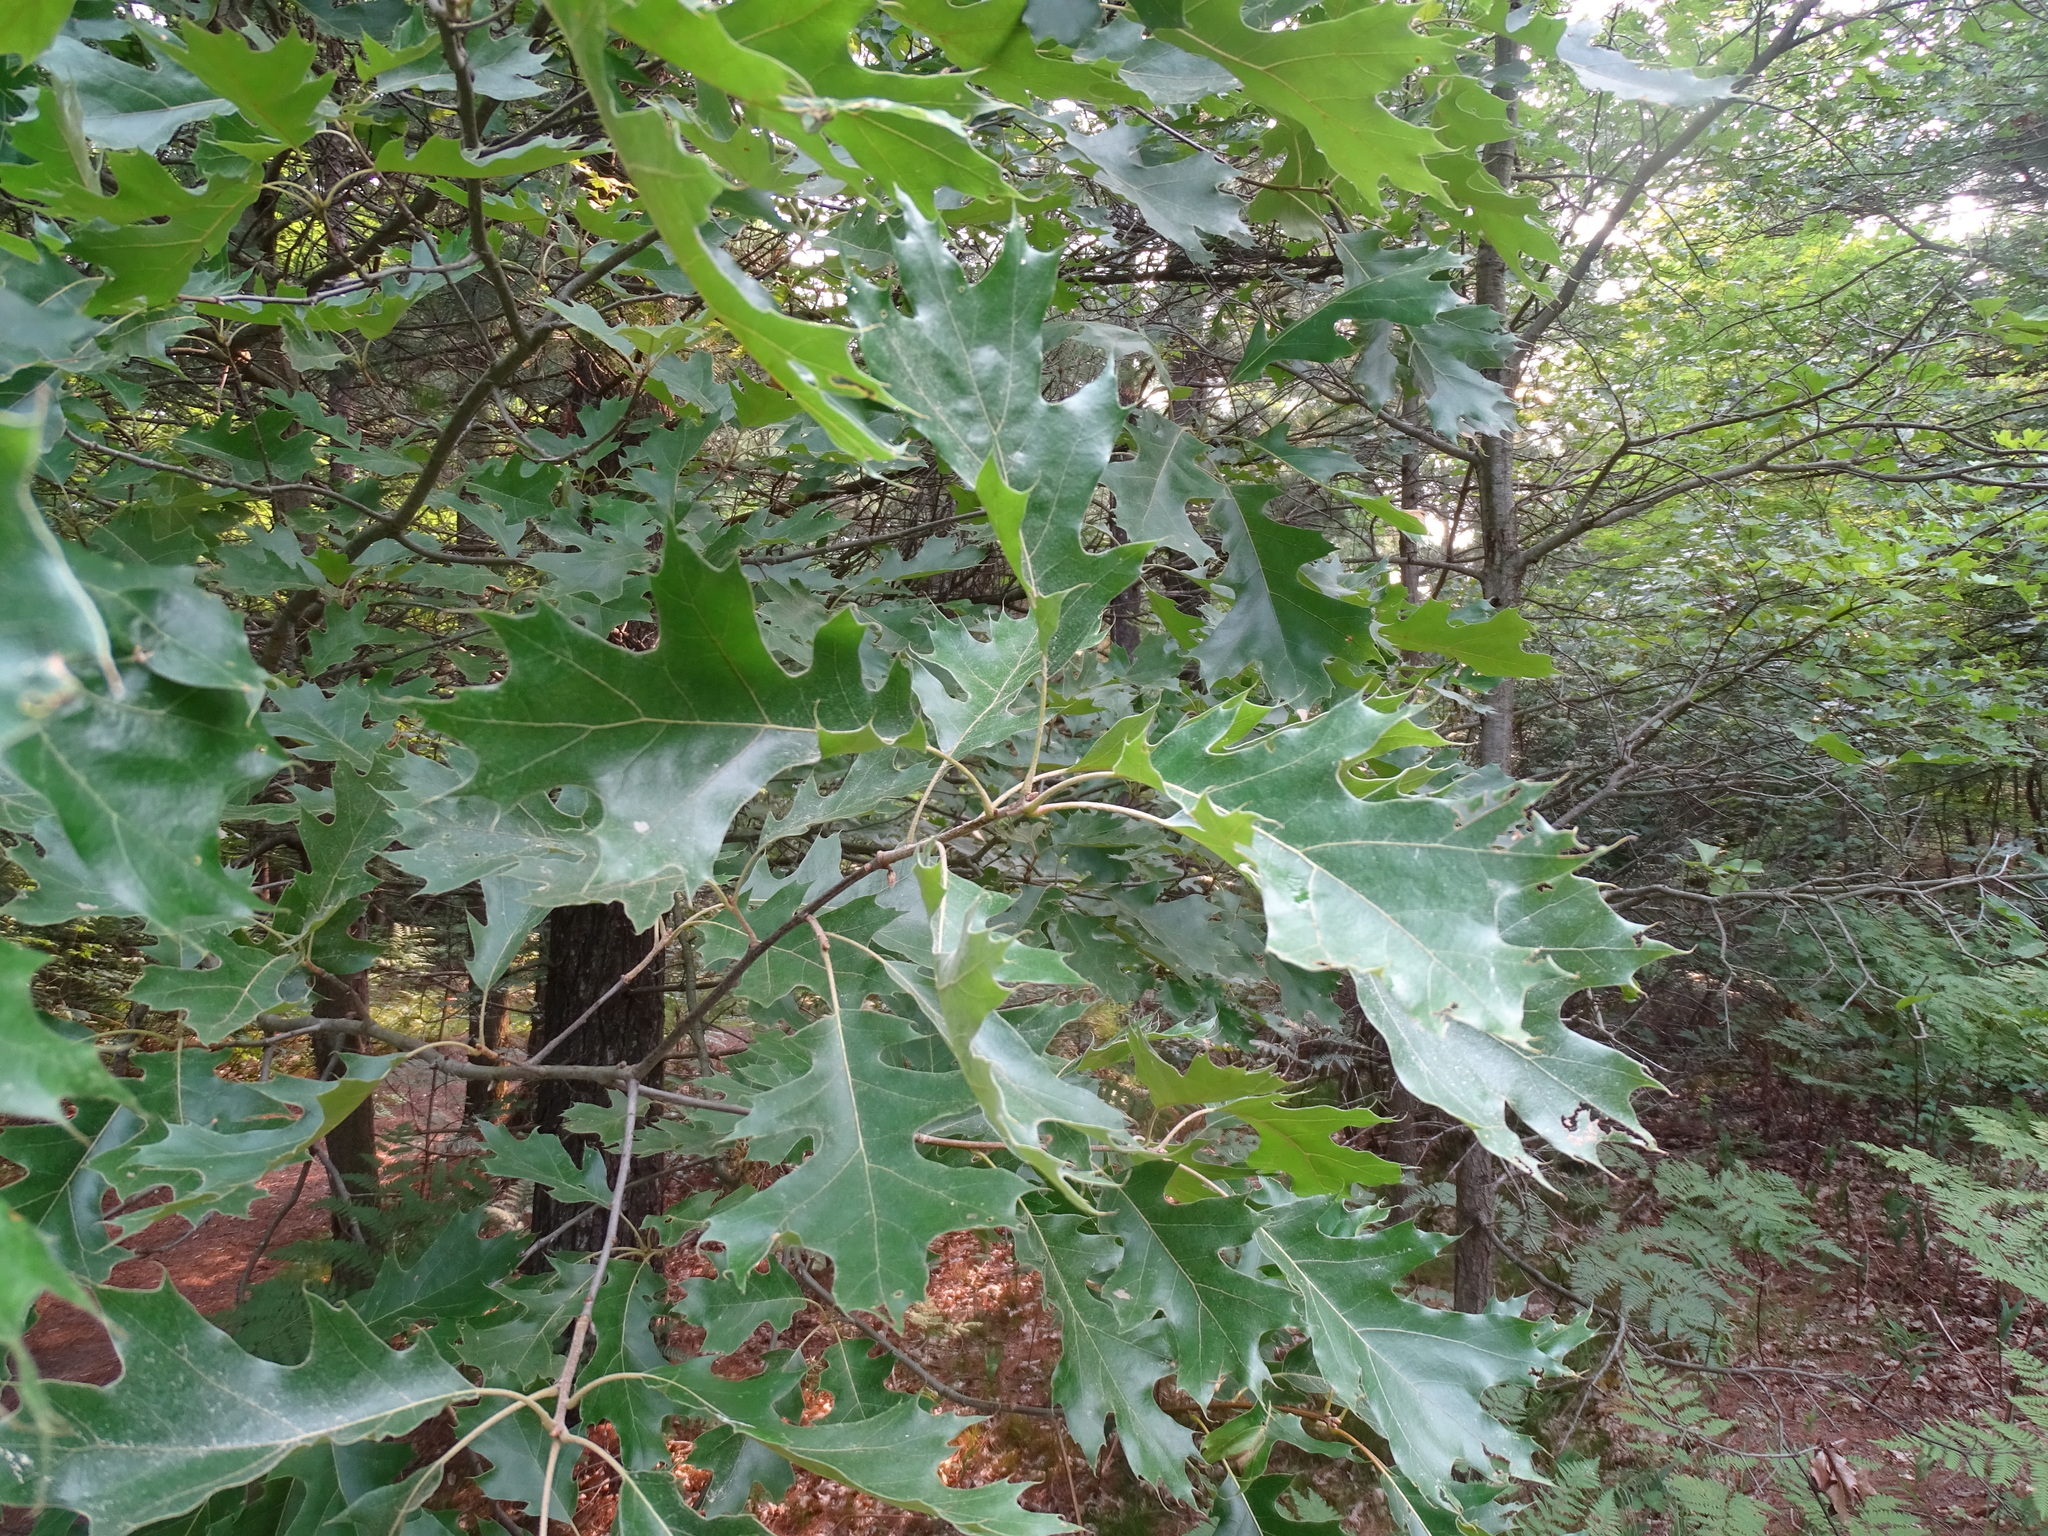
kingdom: Plantae
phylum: Tracheophyta
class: Magnoliopsida
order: Fagales
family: Fagaceae
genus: Quercus
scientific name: Quercus velutina
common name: Black oak
